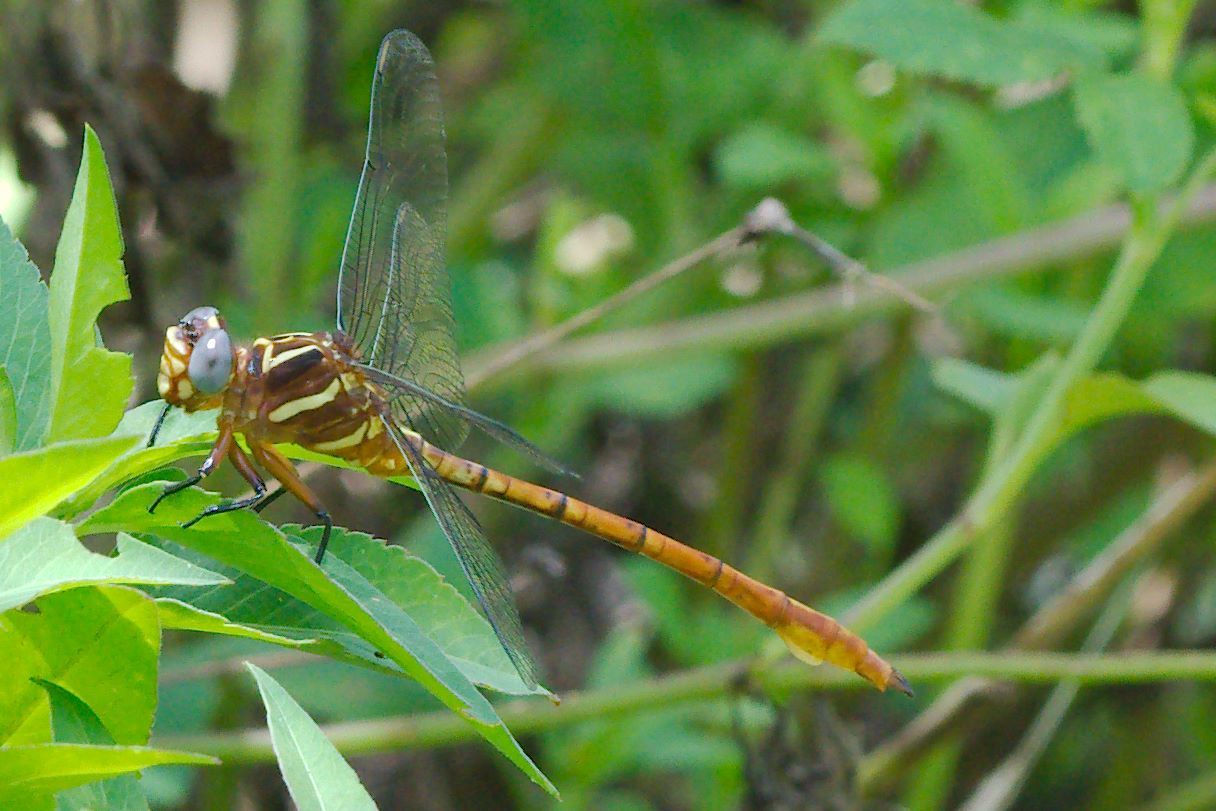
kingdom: Animalia
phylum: Arthropoda
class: Insecta
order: Odonata
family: Gomphidae
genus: Aphylla
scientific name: Aphylla williamsoni
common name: Two-striped forceptail
